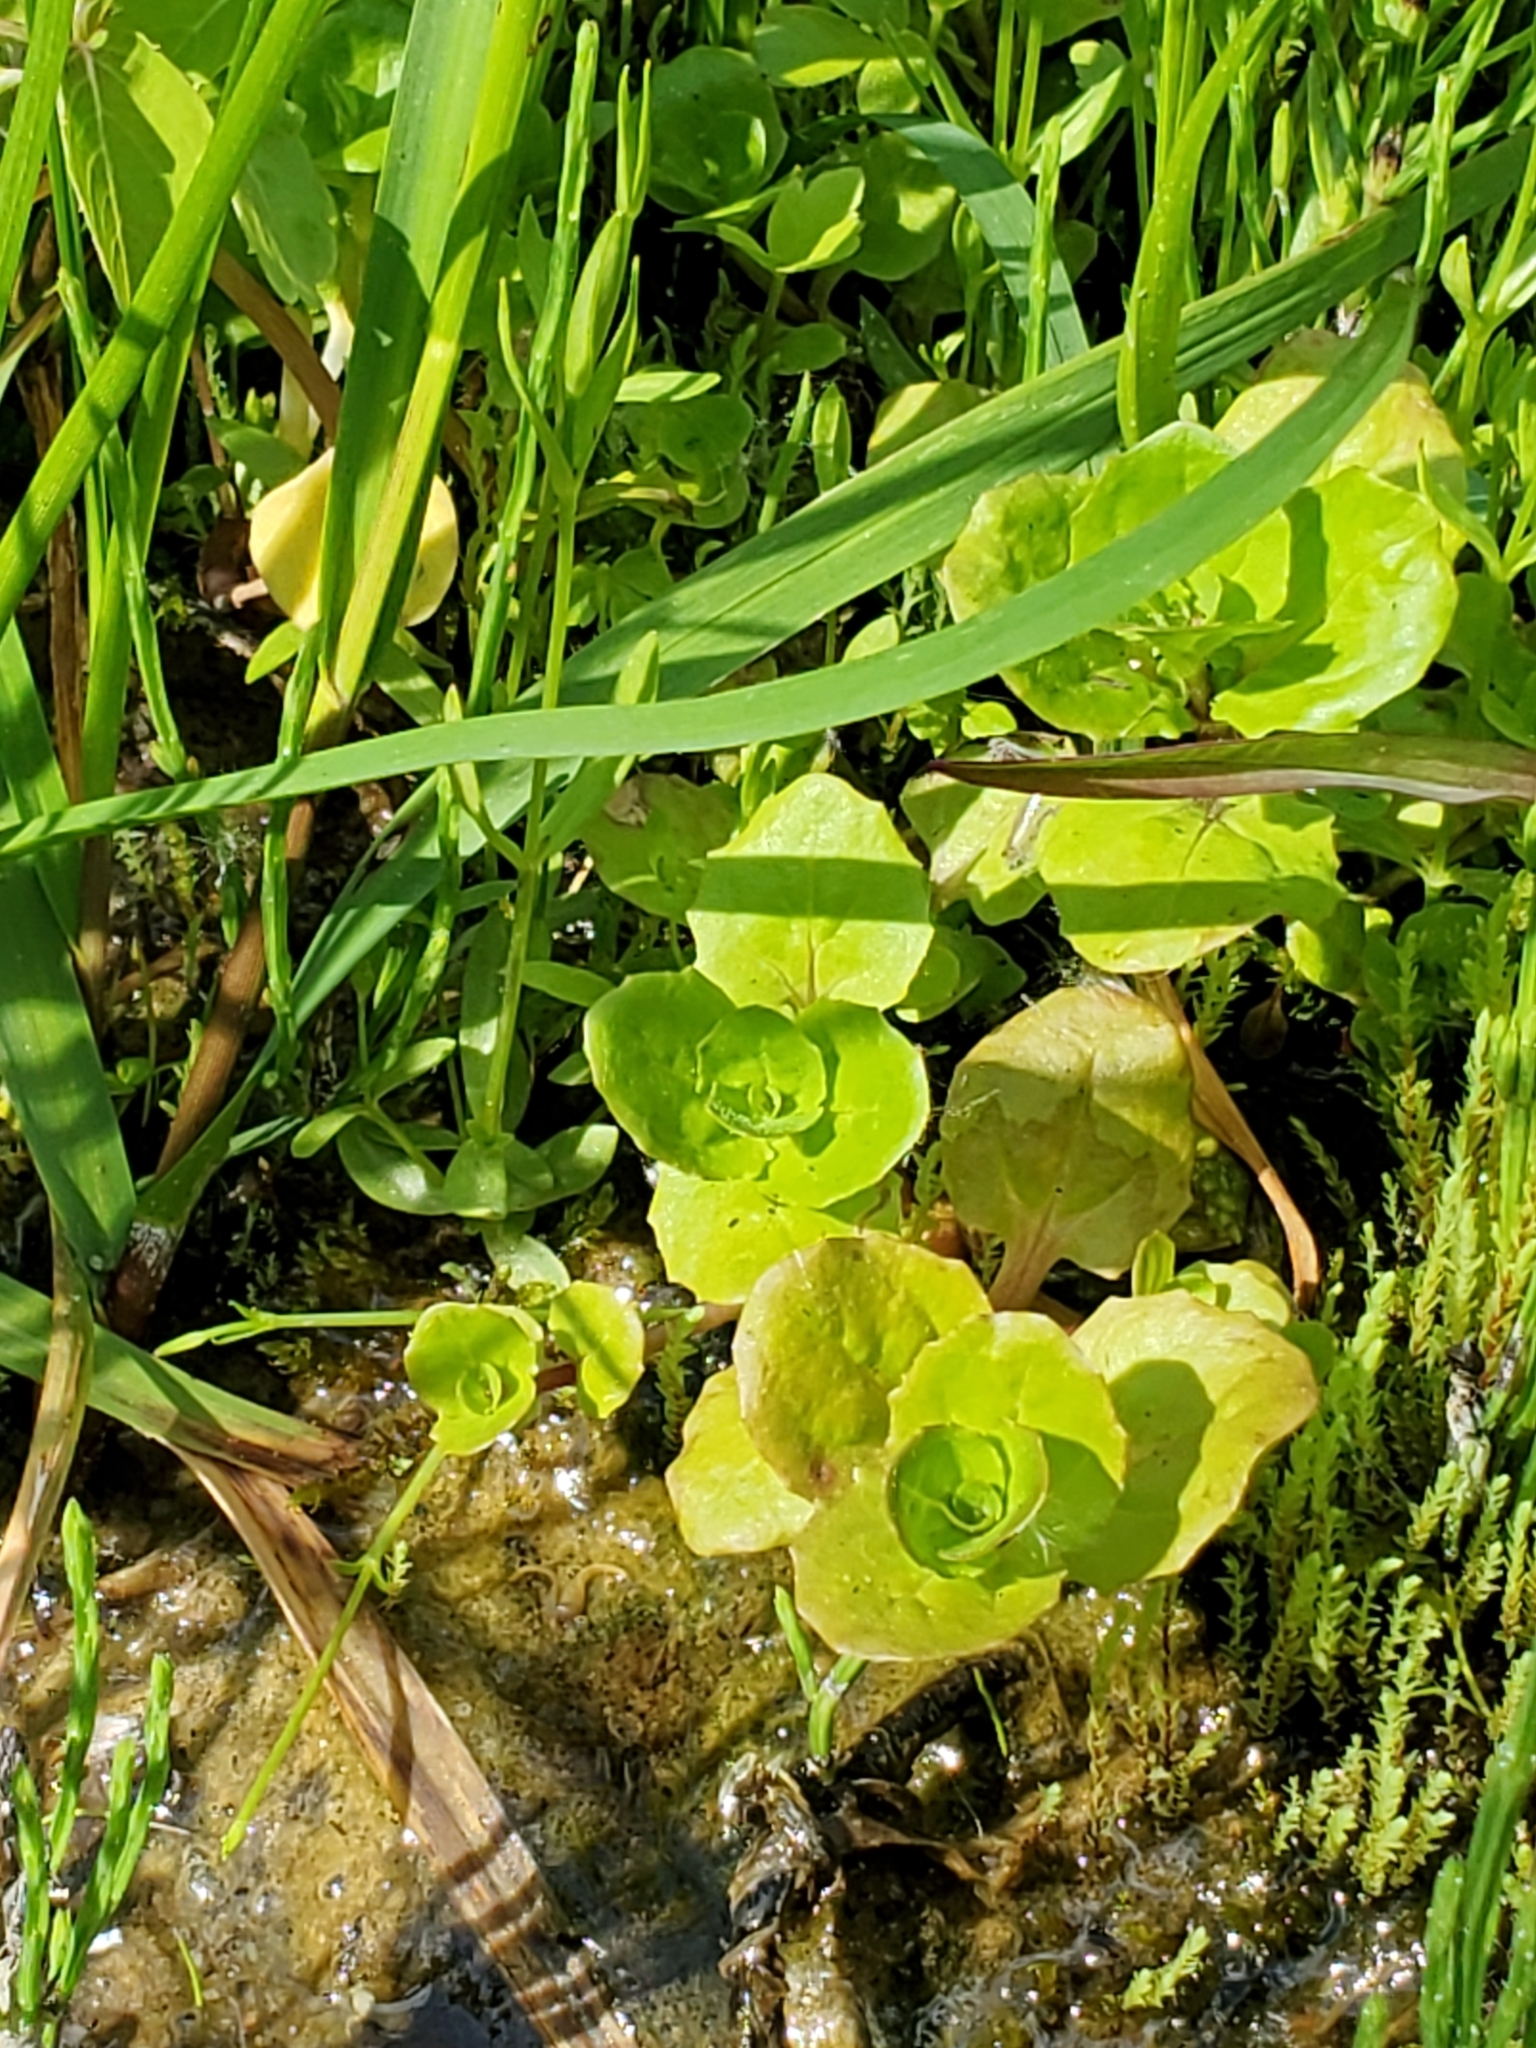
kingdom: Plantae
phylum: Tracheophyta
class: Magnoliopsida
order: Lamiales
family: Phrymaceae
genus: Erythranthe
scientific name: Erythranthe geyeri
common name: Geyer's monkeyflower
